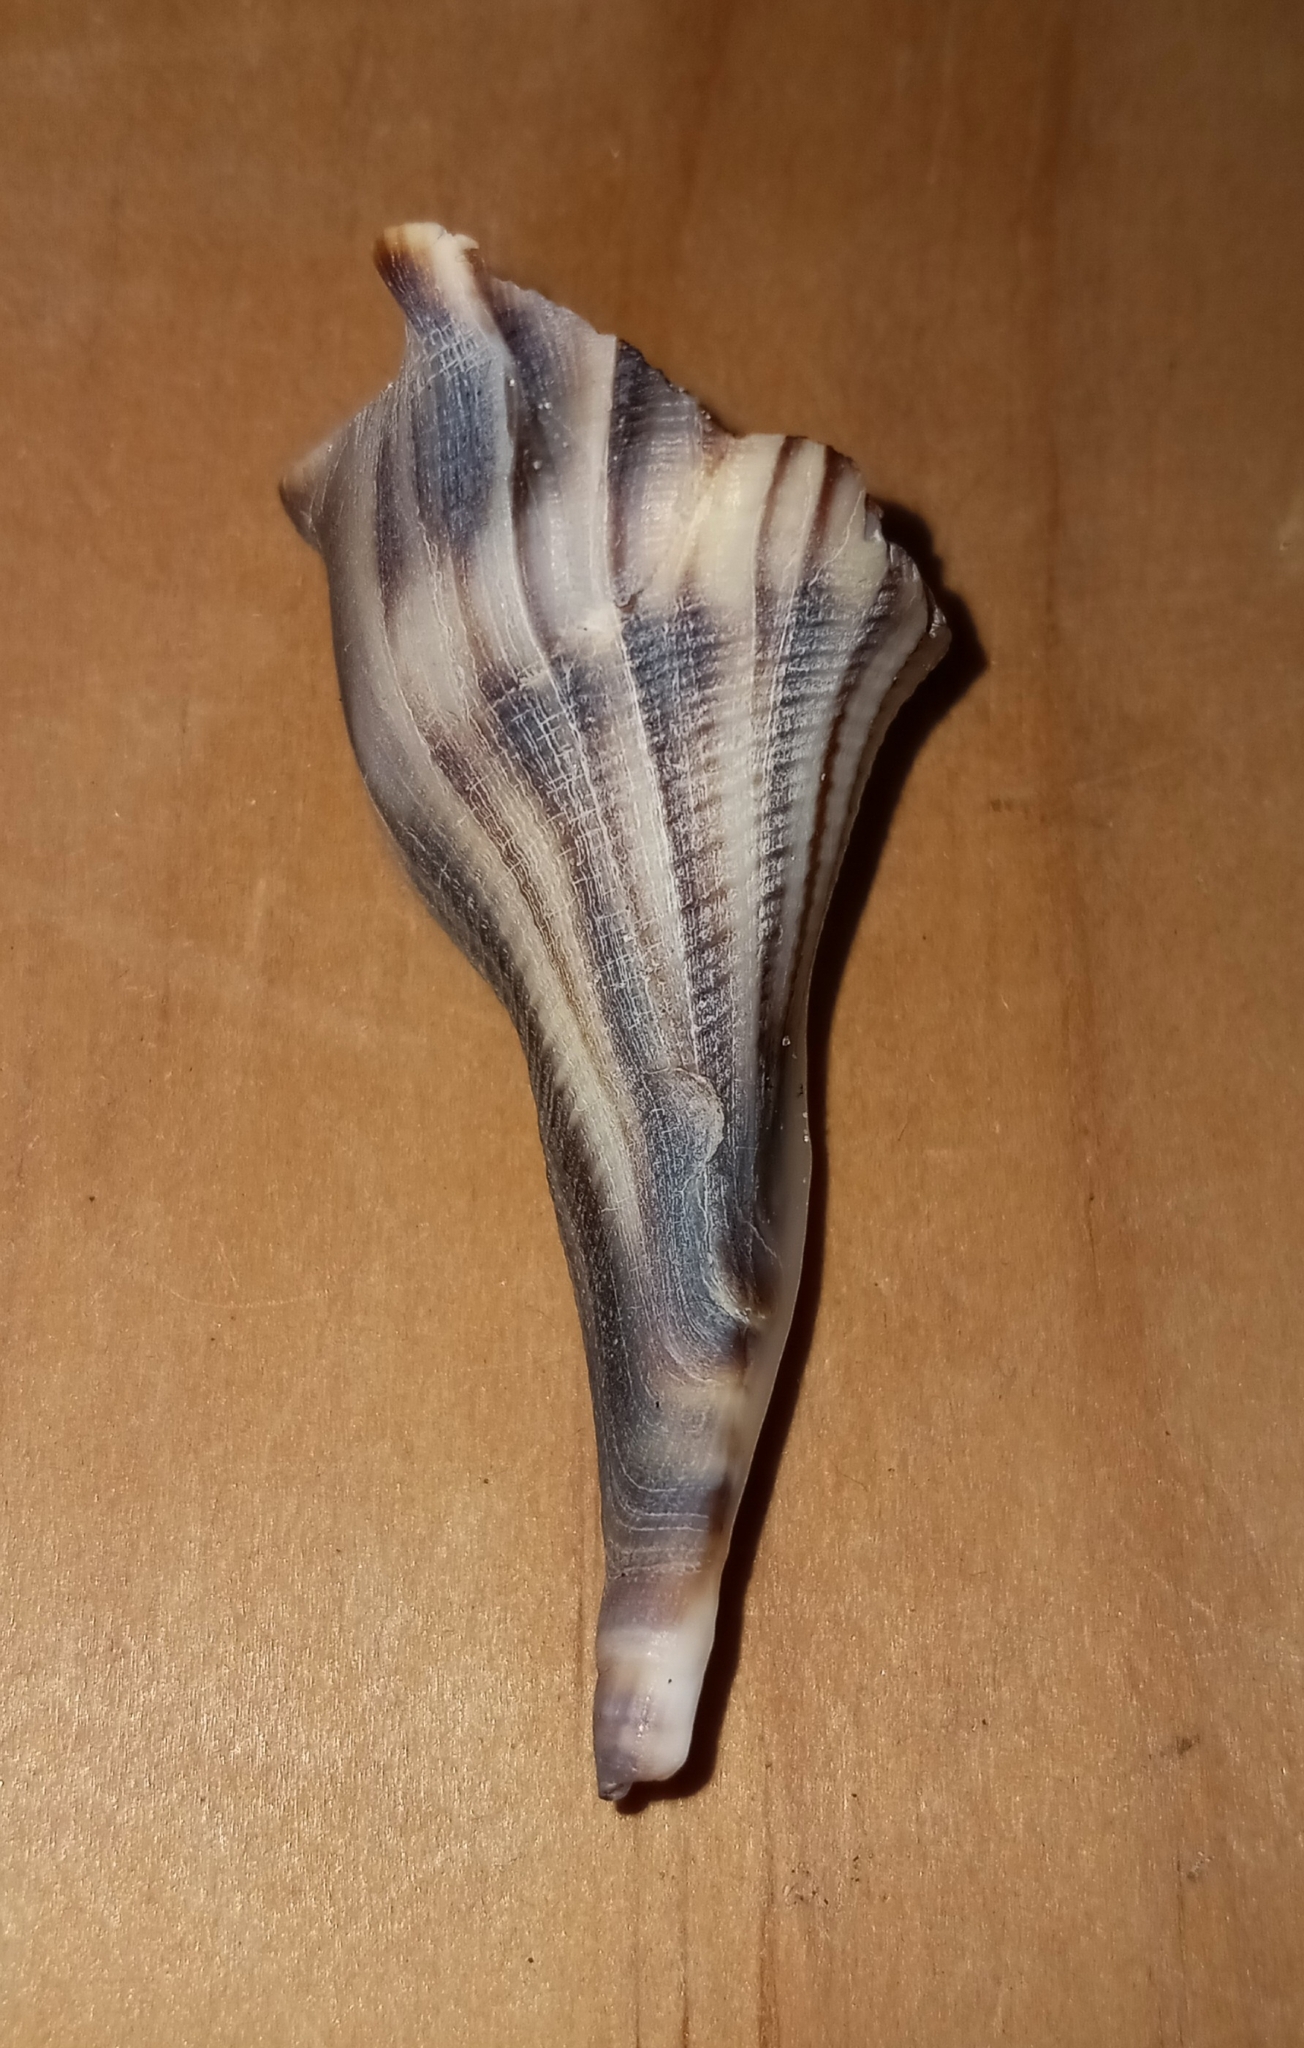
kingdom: Animalia
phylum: Mollusca
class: Gastropoda
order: Neogastropoda
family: Busyconidae
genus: Busycon
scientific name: Busycon carica
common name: Knobbed whelk
